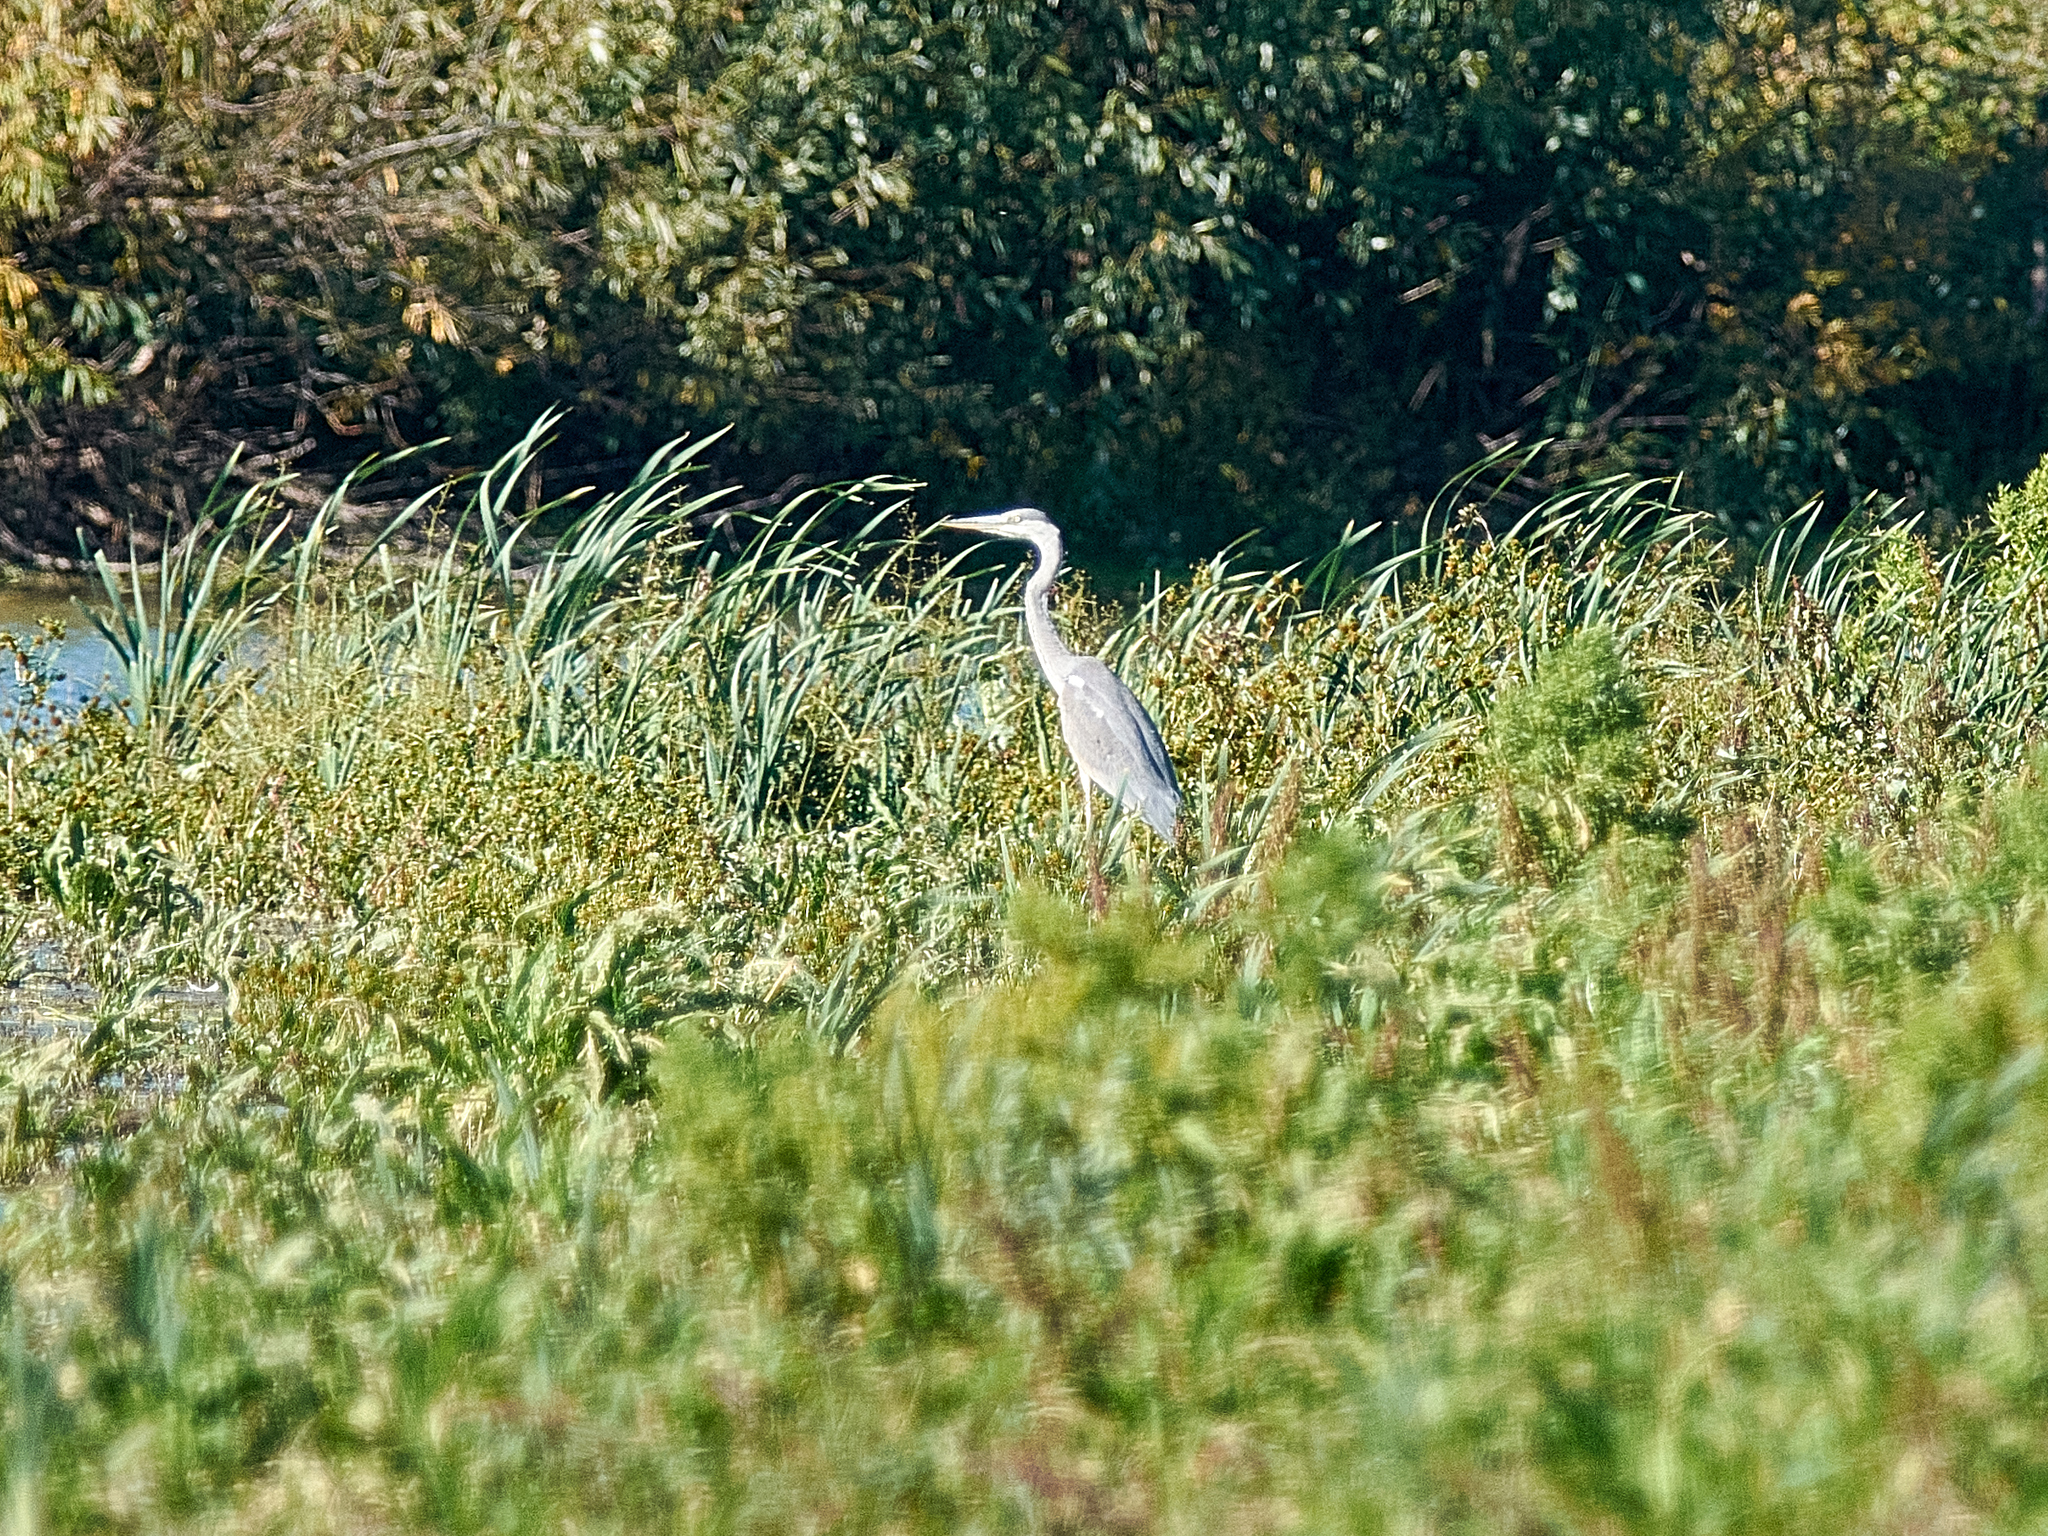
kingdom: Animalia
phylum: Chordata
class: Aves
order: Pelecaniformes
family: Ardeidae
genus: Ardea
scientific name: Ardea cinerea
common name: Grey heron
